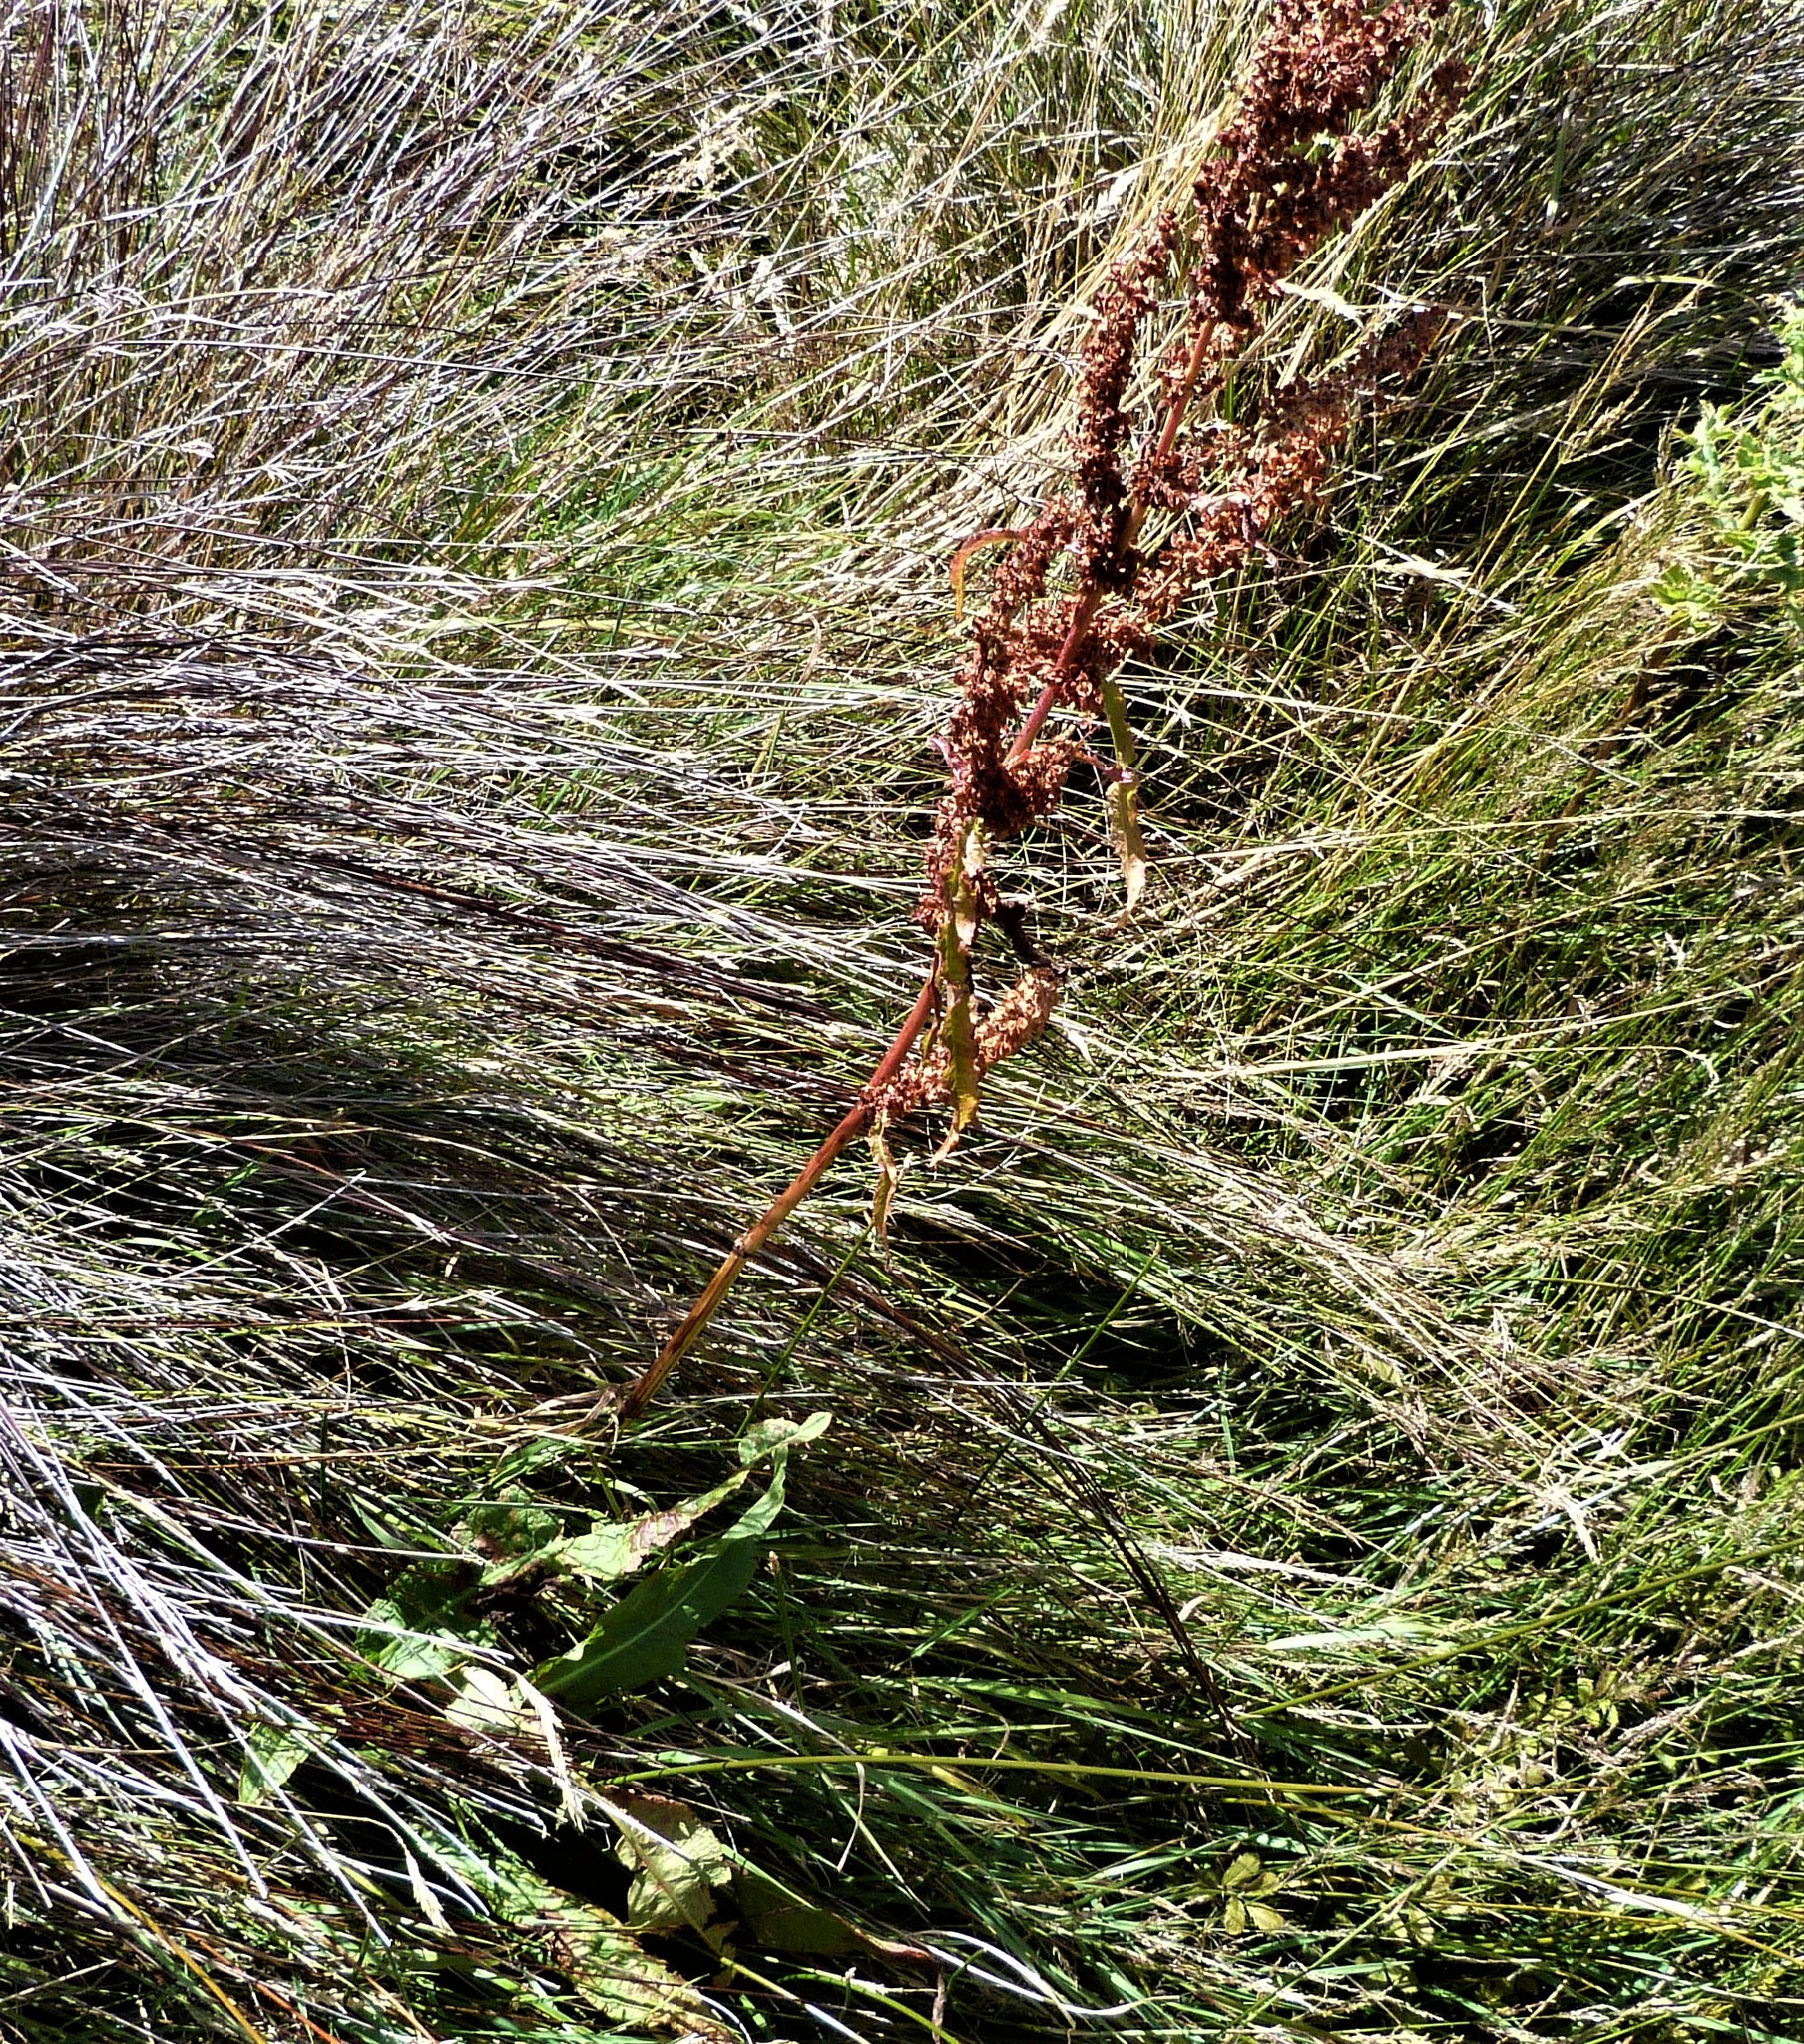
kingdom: Plantae
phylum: Tracheophyta
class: Magnoliopsida
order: Caryophyllales
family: Polygonaceae
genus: Rumex
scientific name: Rumex crispus
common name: Curled dock
